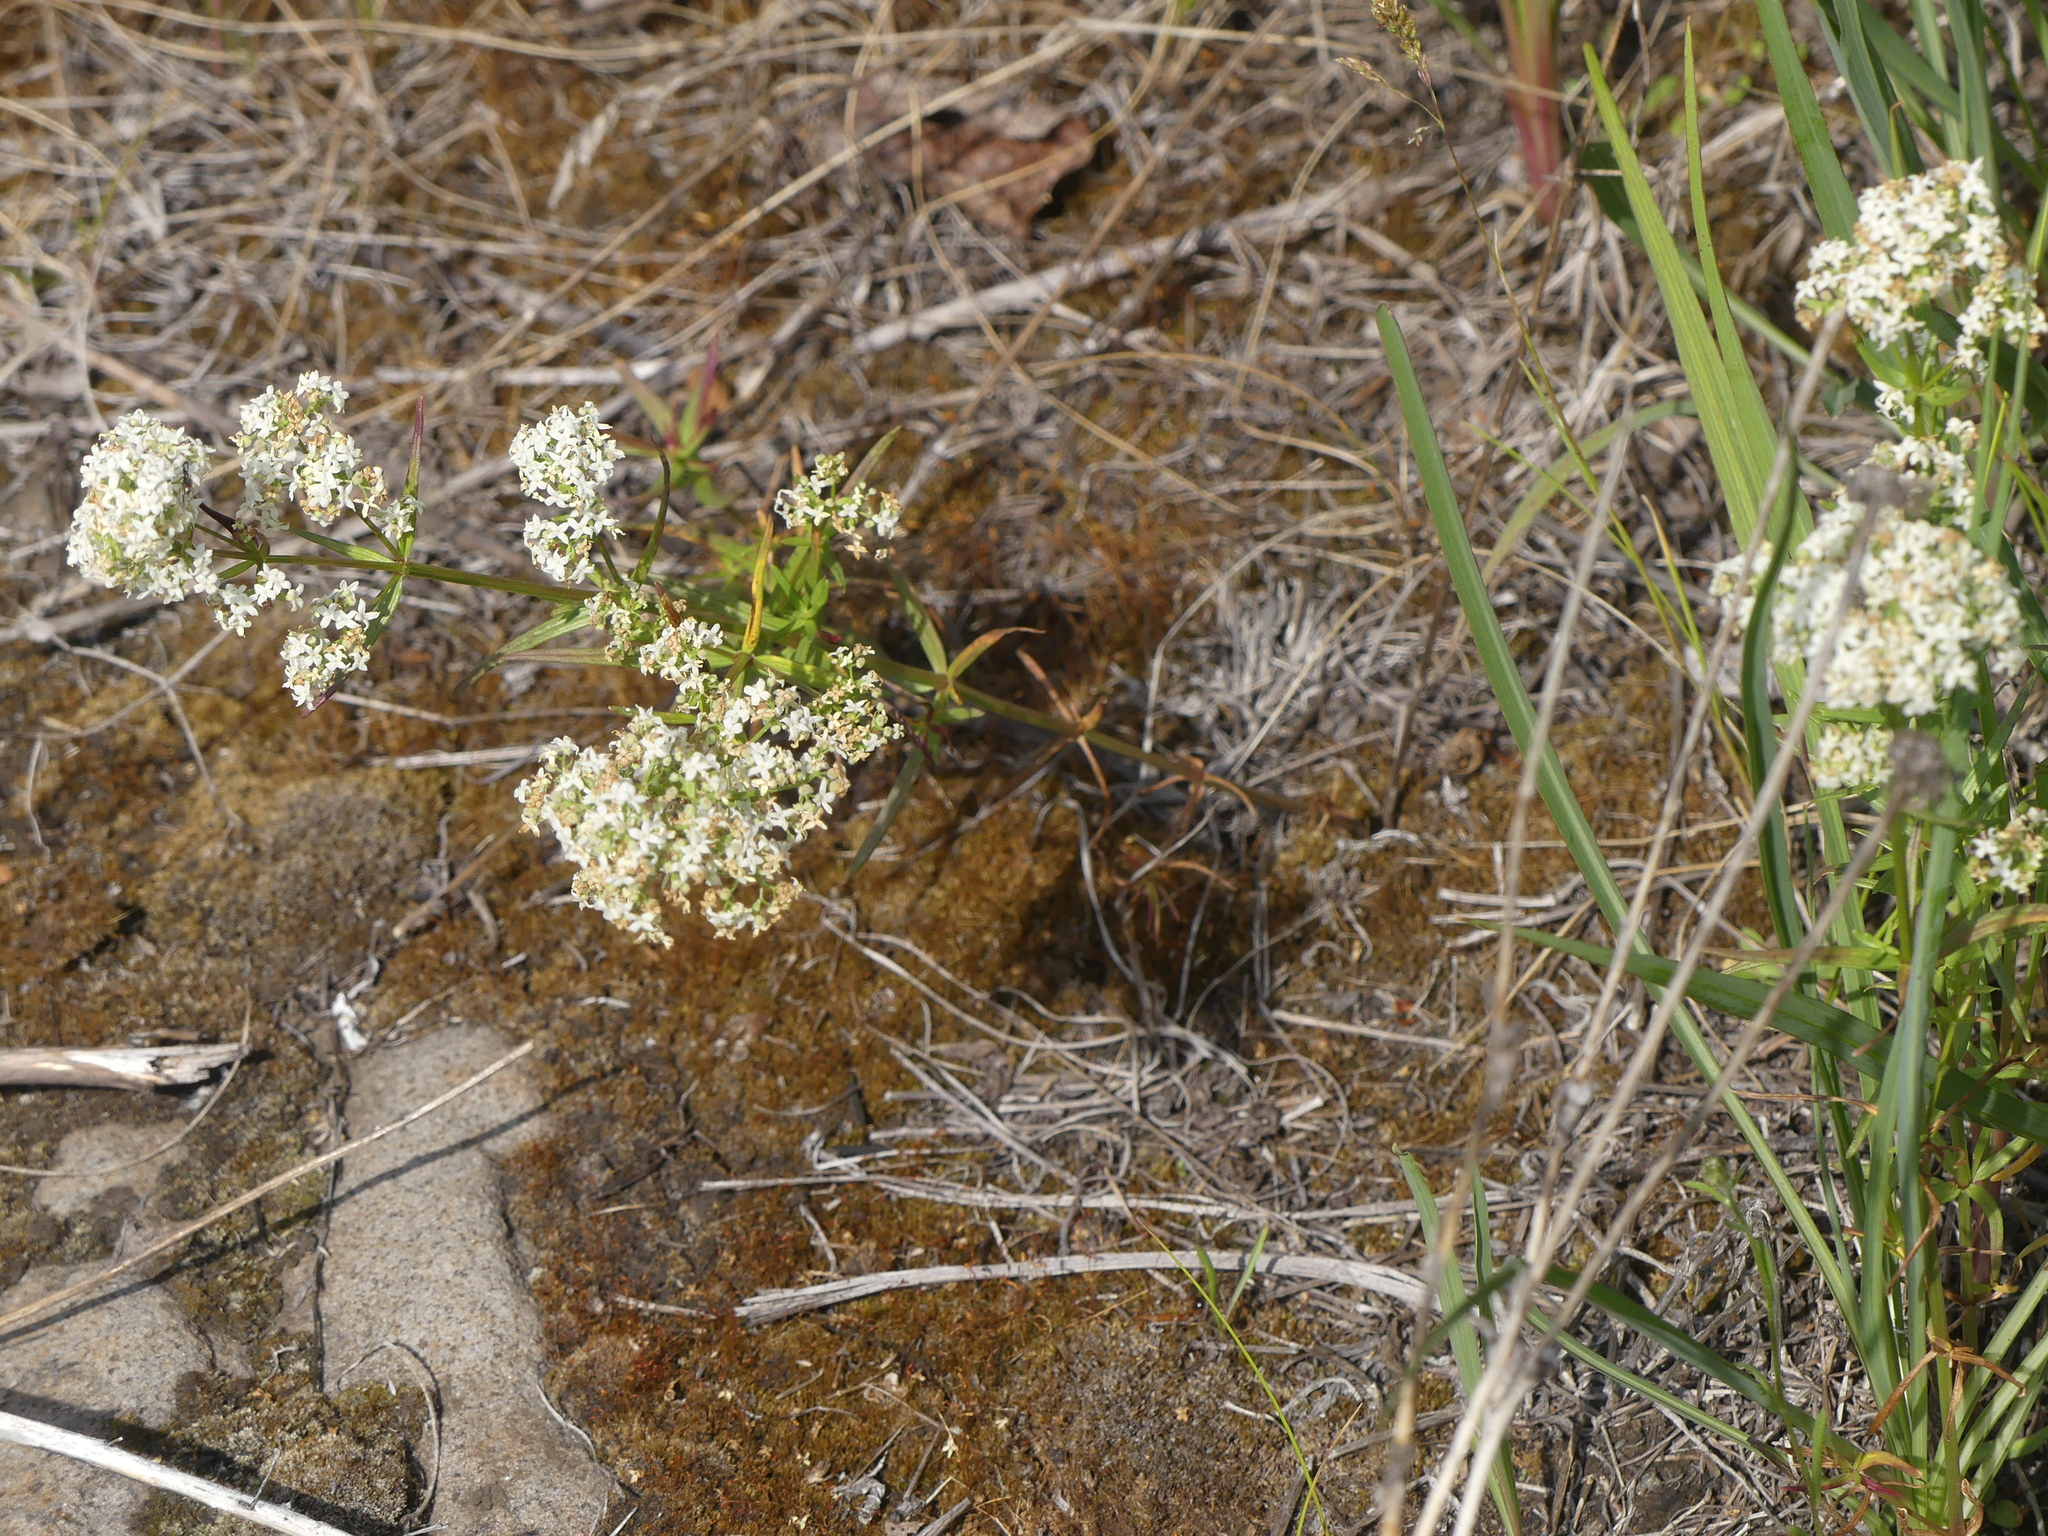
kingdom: Plantae
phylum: Tracheophyta
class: Magnoliopsida
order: Gentianales
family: Rubiaceae
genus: Galium
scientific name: Galium boreale
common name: Northern bedstraw
